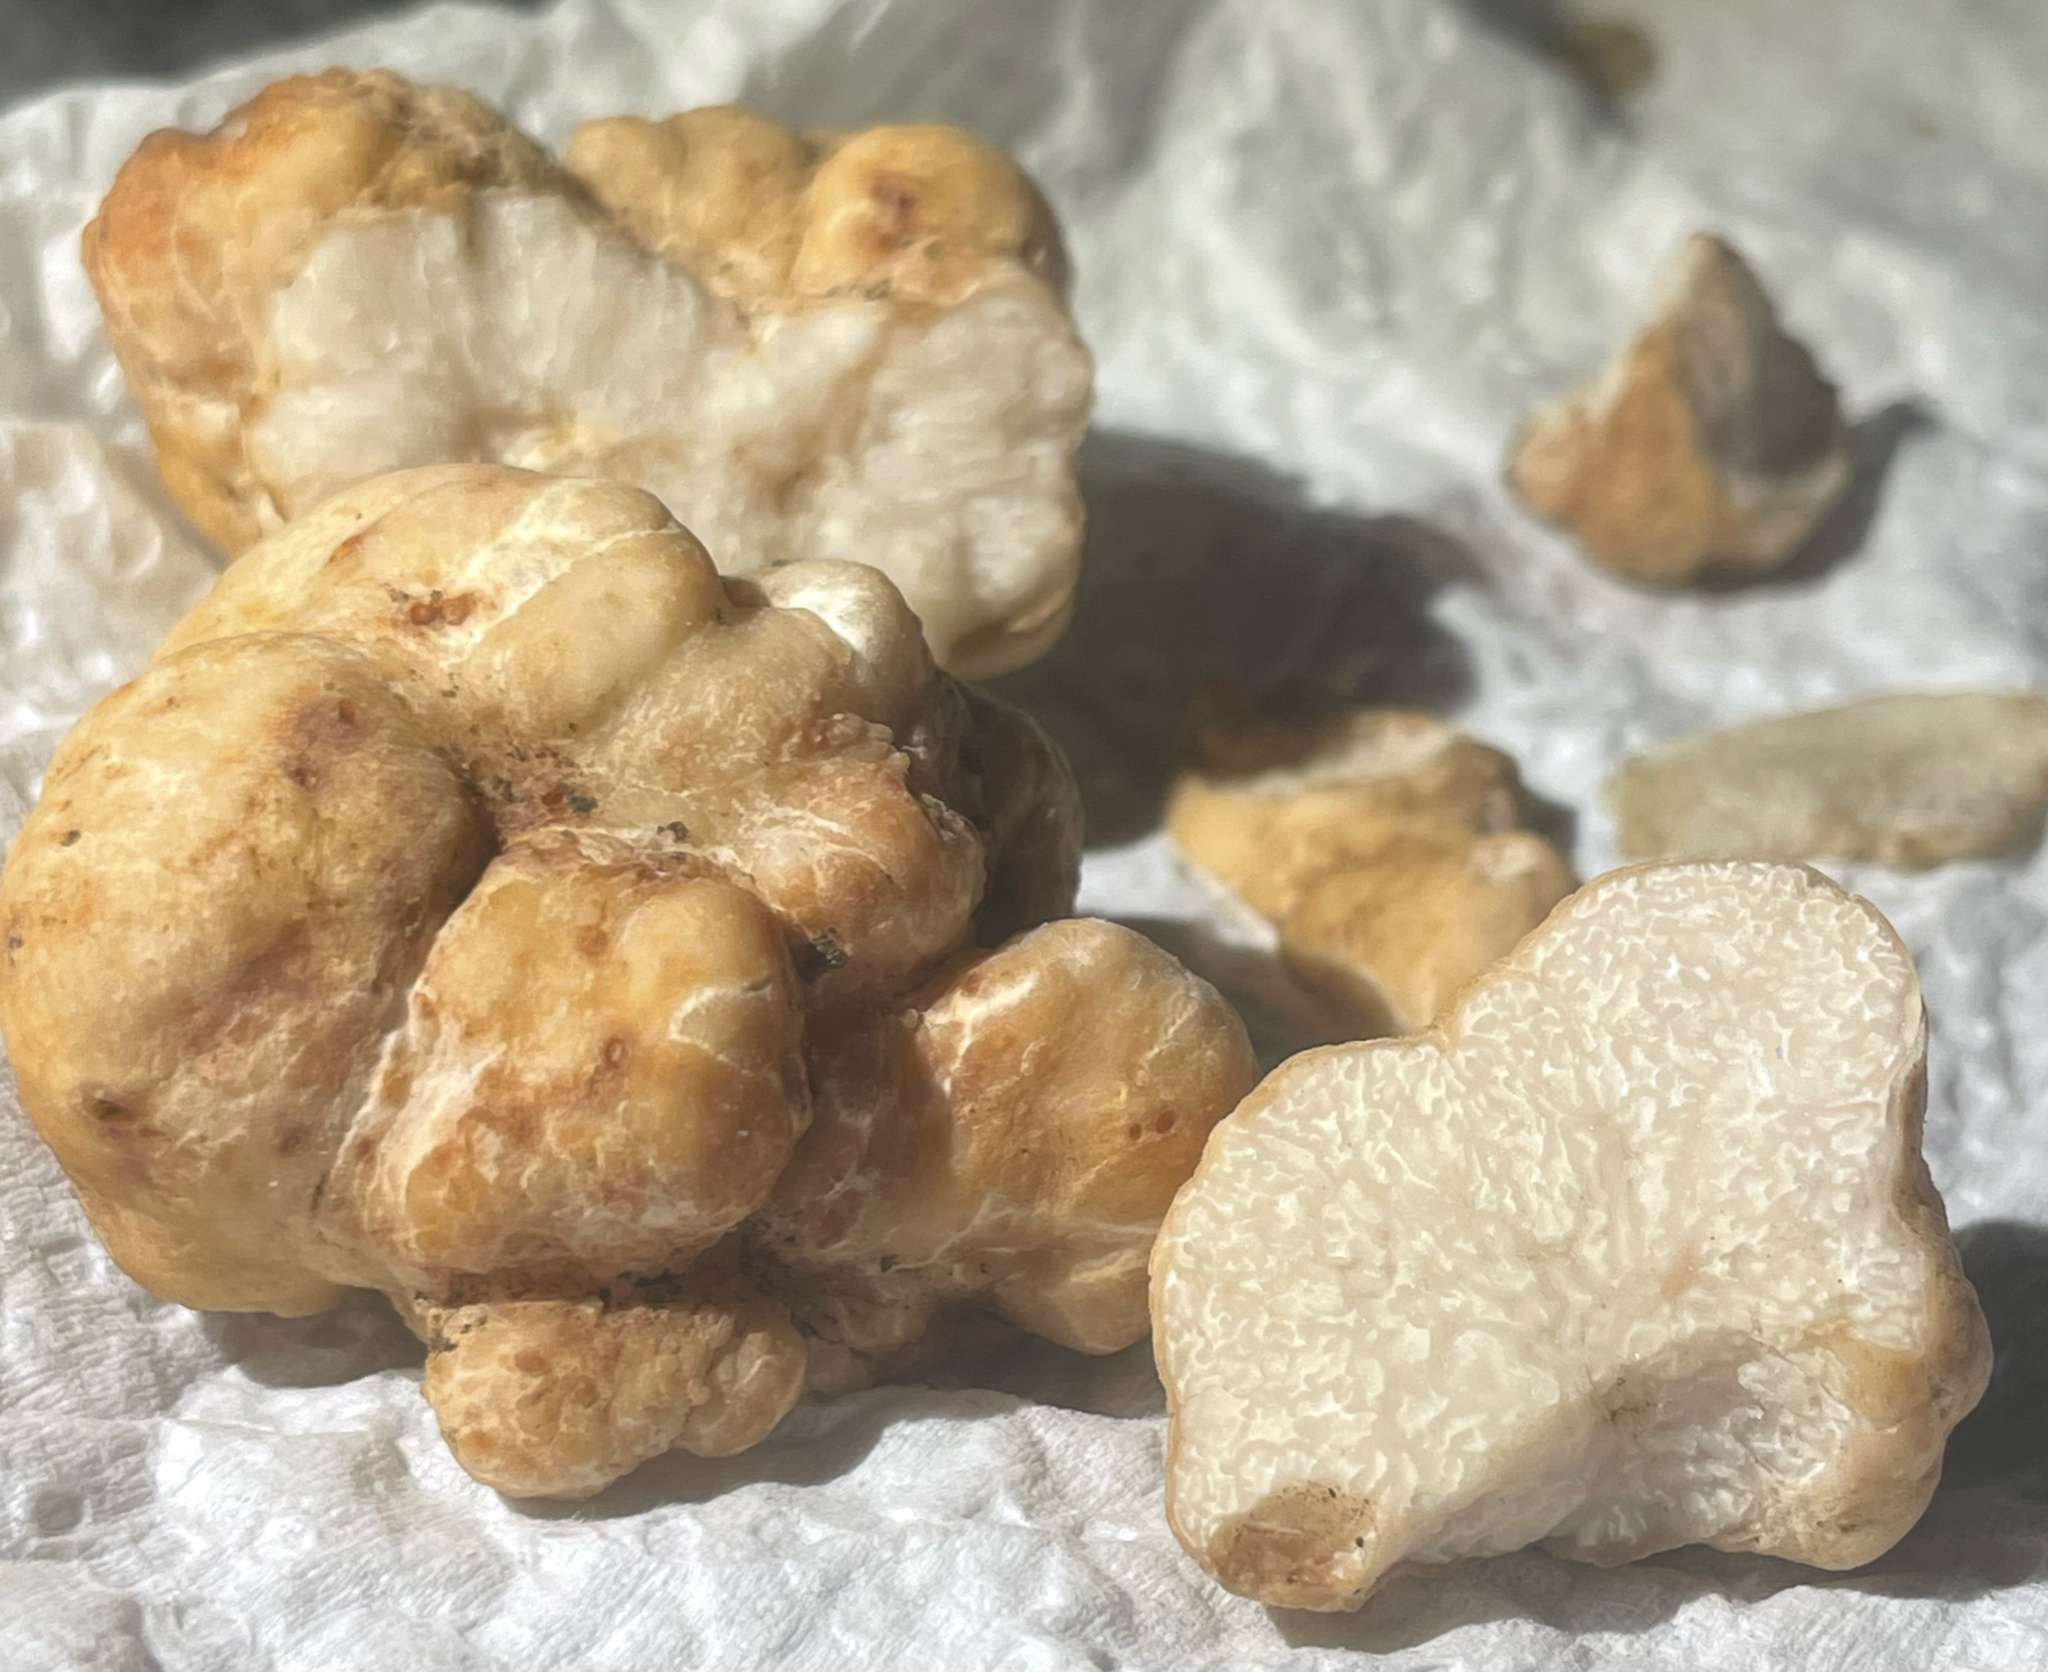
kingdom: Fungi
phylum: Ascomycota
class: Pezizomycetes
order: Pezizales
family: Tuberaceae
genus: Tuber
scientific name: Tuber gibbosum
